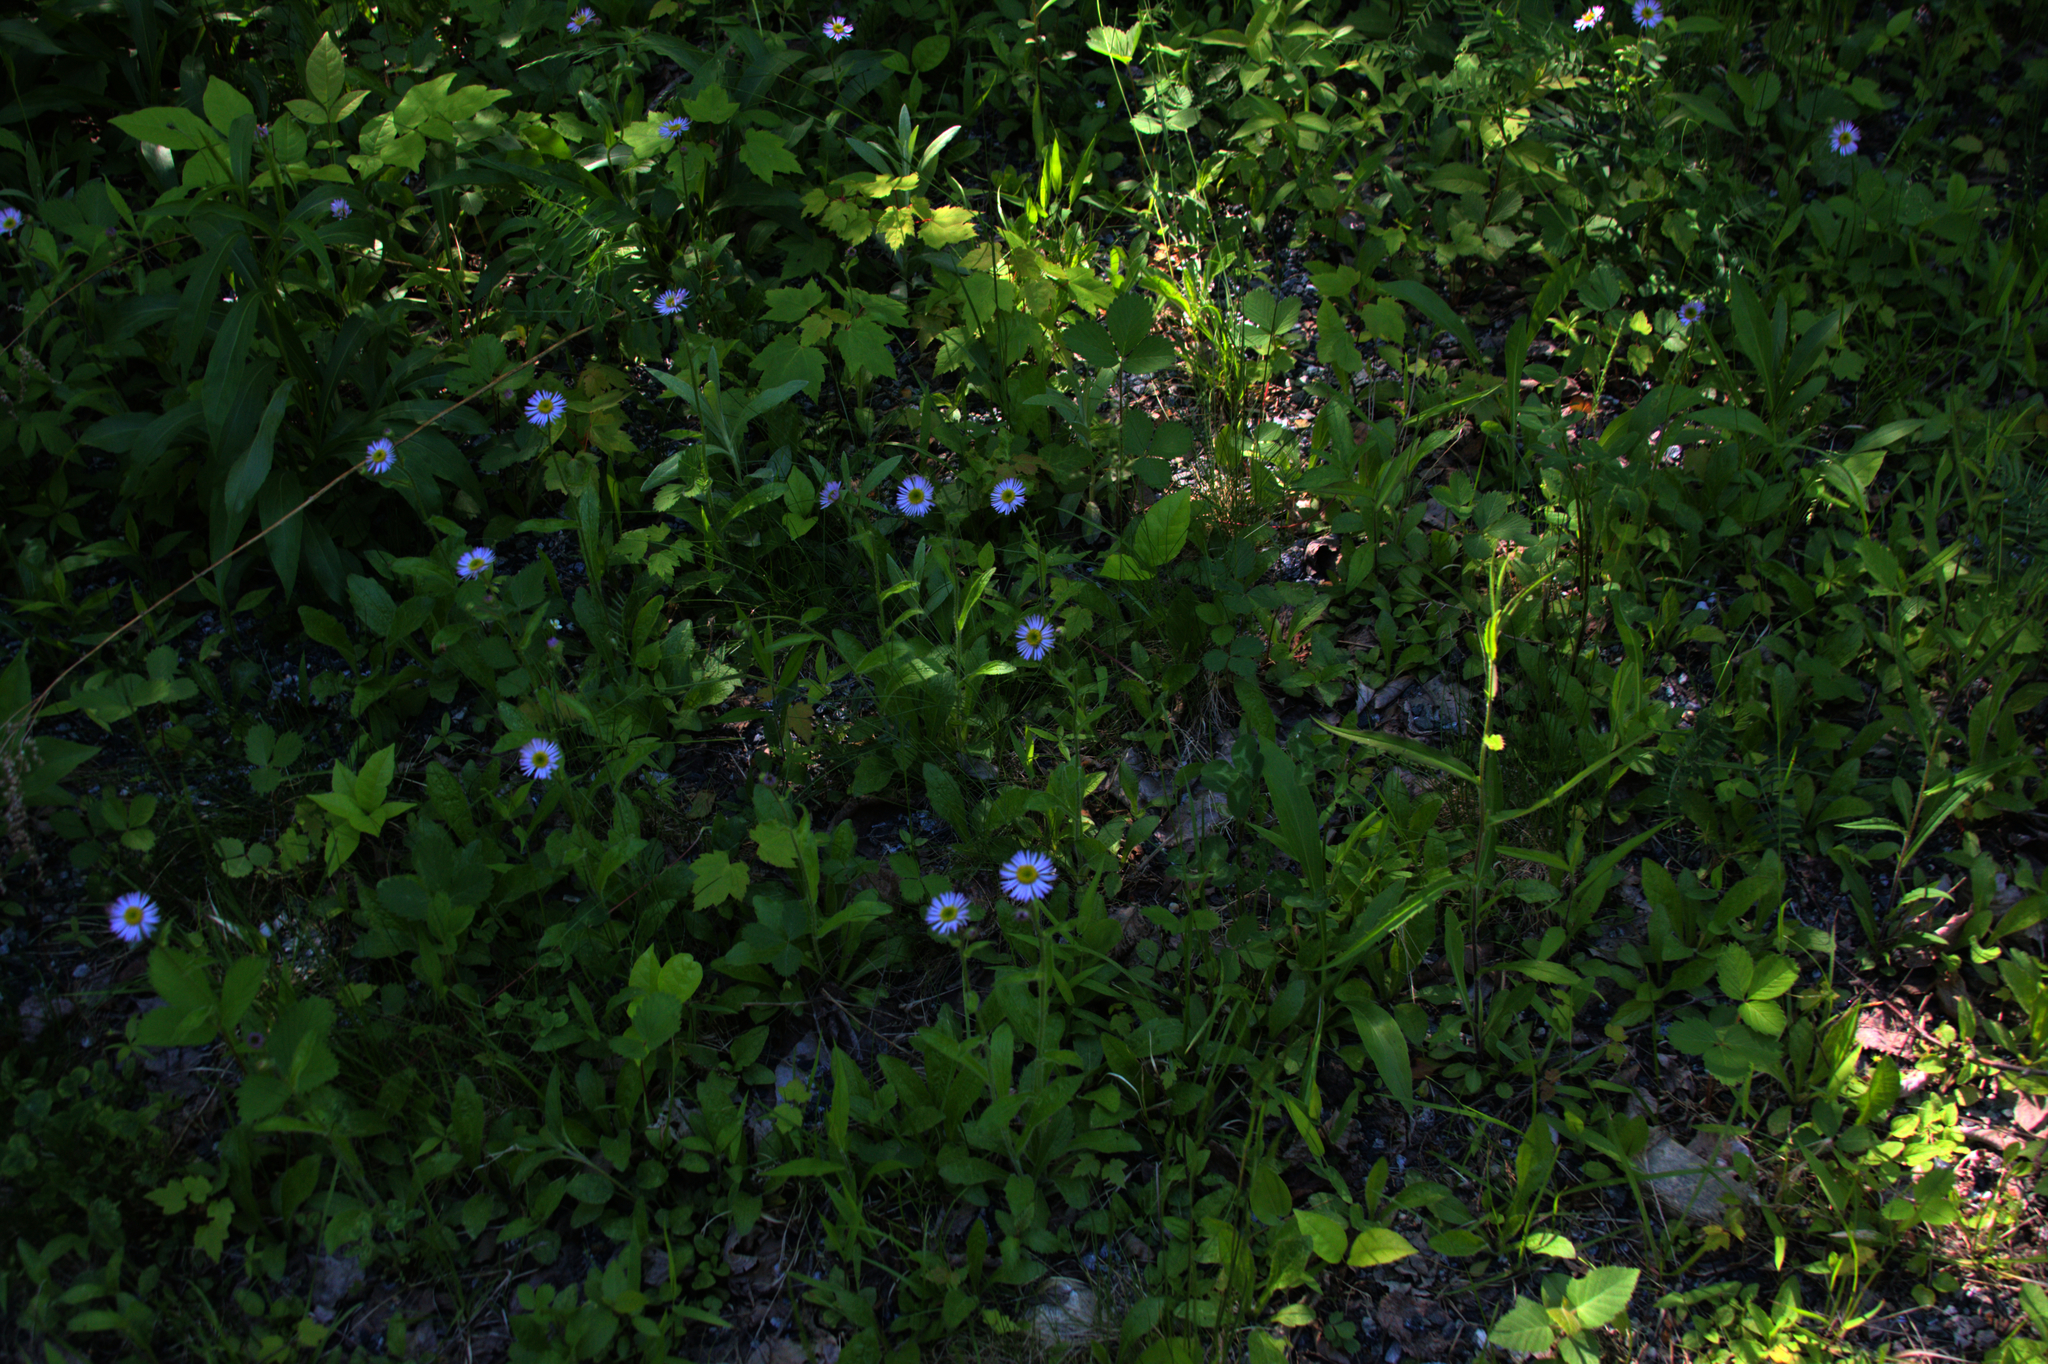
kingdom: Plantae
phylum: Tracheophyta
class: Magnoliopsida
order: Asterales
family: Asteraceae
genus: Erigeron
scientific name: Erigeron pulchellus
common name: Hairy fleabane
